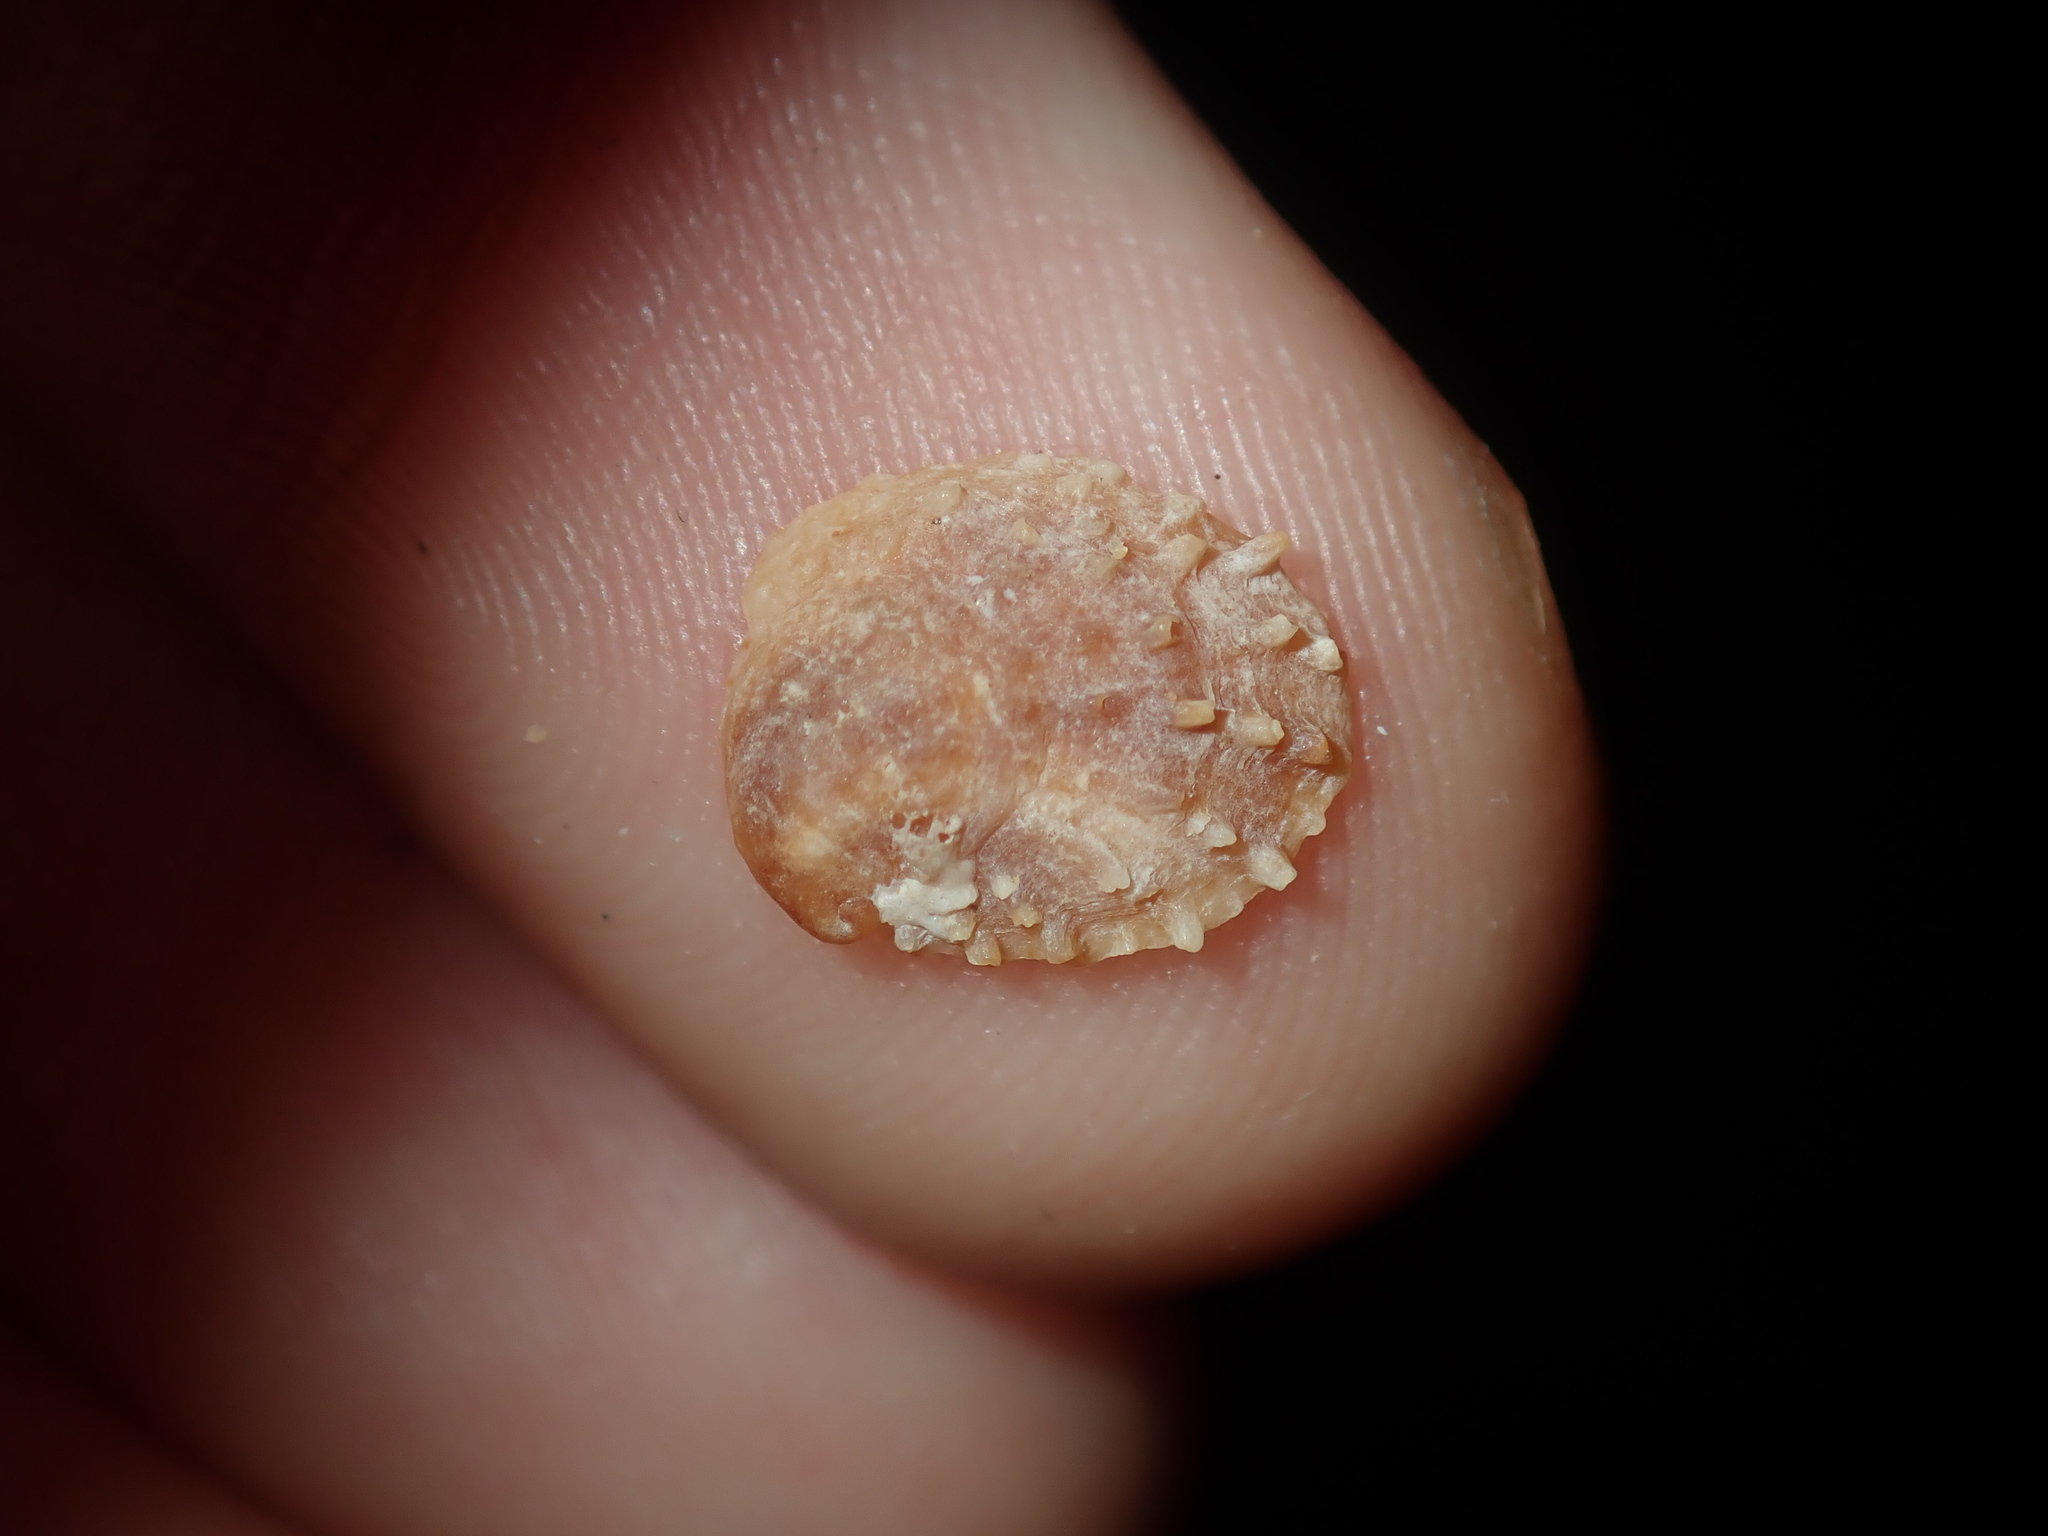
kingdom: Animalia
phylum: Mollusca
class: Gastropoda
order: Littorinimorpha
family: Calyptraeidae
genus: Bostrycapulus
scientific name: Bostrycapulus pritzkeri
